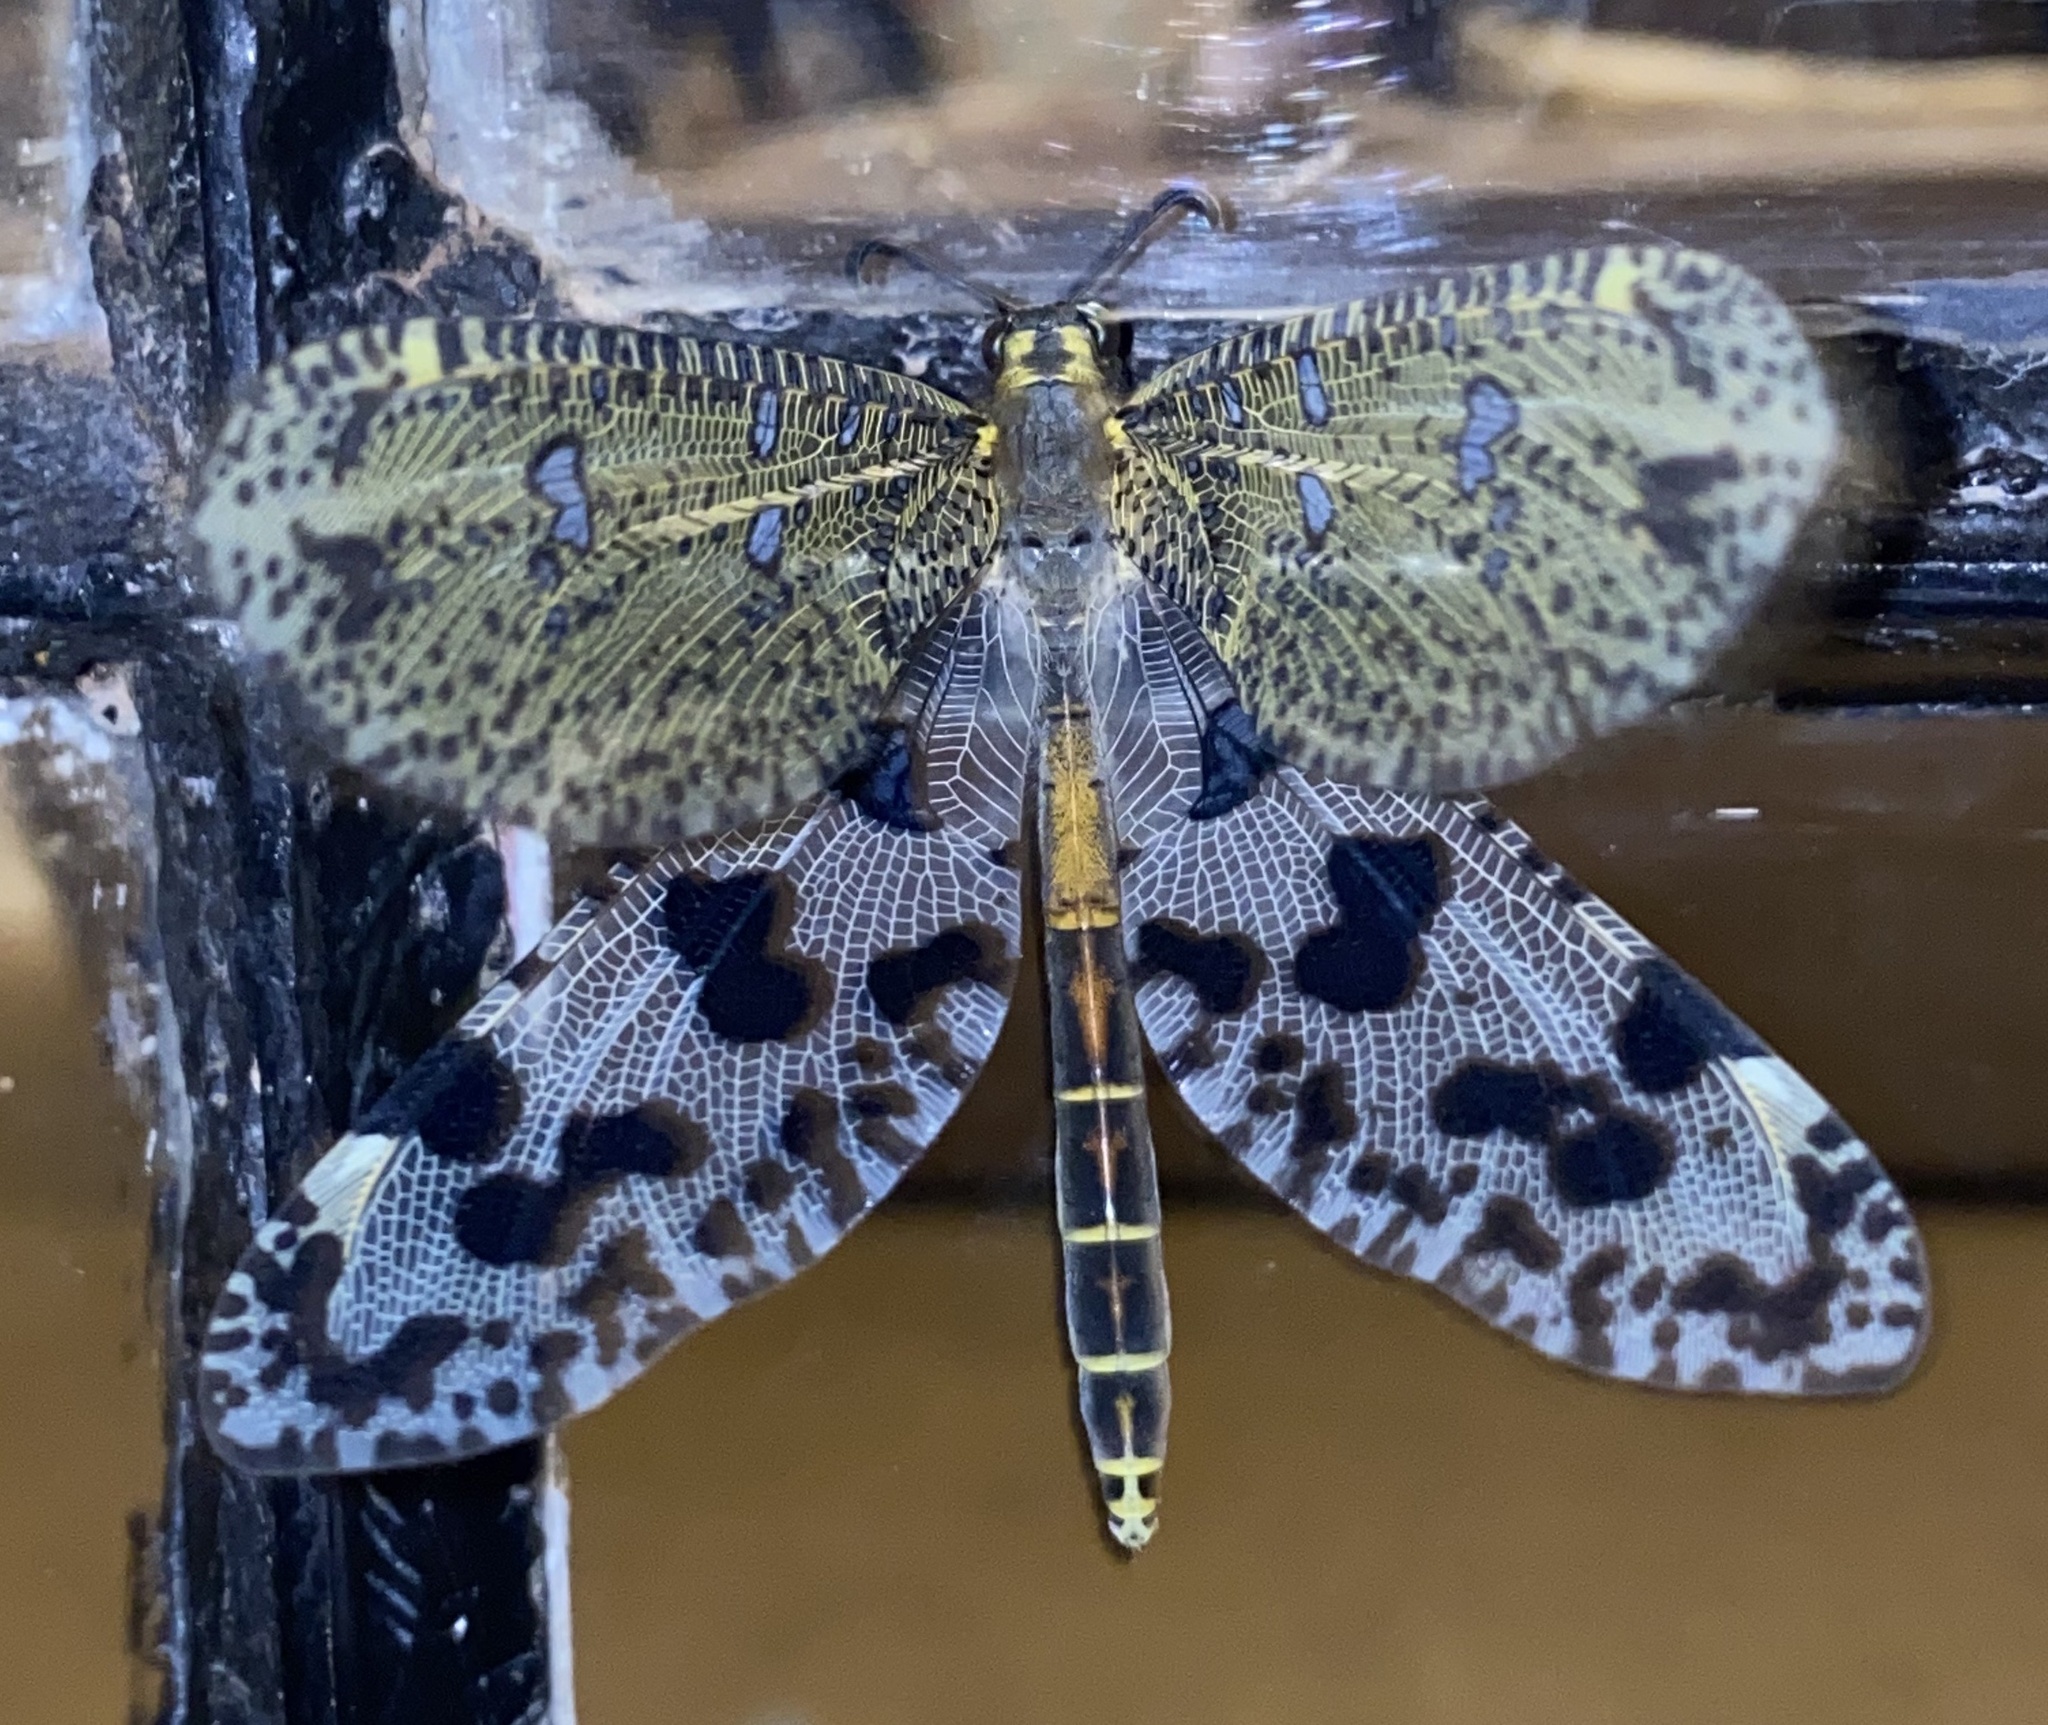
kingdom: Animalia
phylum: Arthropoda
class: Insecta
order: Neuroptera
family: Myrmeleontidae
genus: Palpares
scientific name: Palpares caffer
